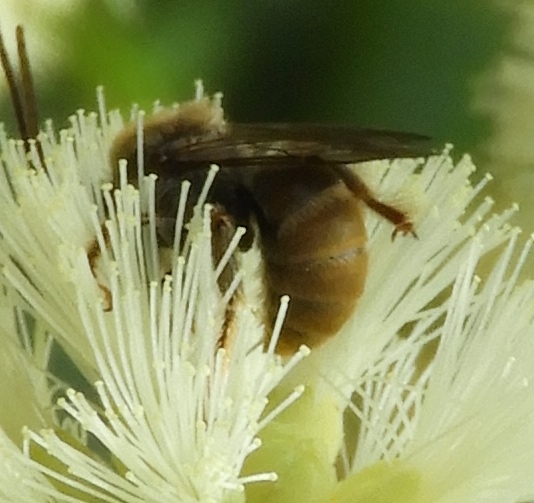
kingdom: Animalia
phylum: Arthropoda
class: Insecta
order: Hymenoptera
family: Apidae
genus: Melissoptila
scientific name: Melissoptila otomita
